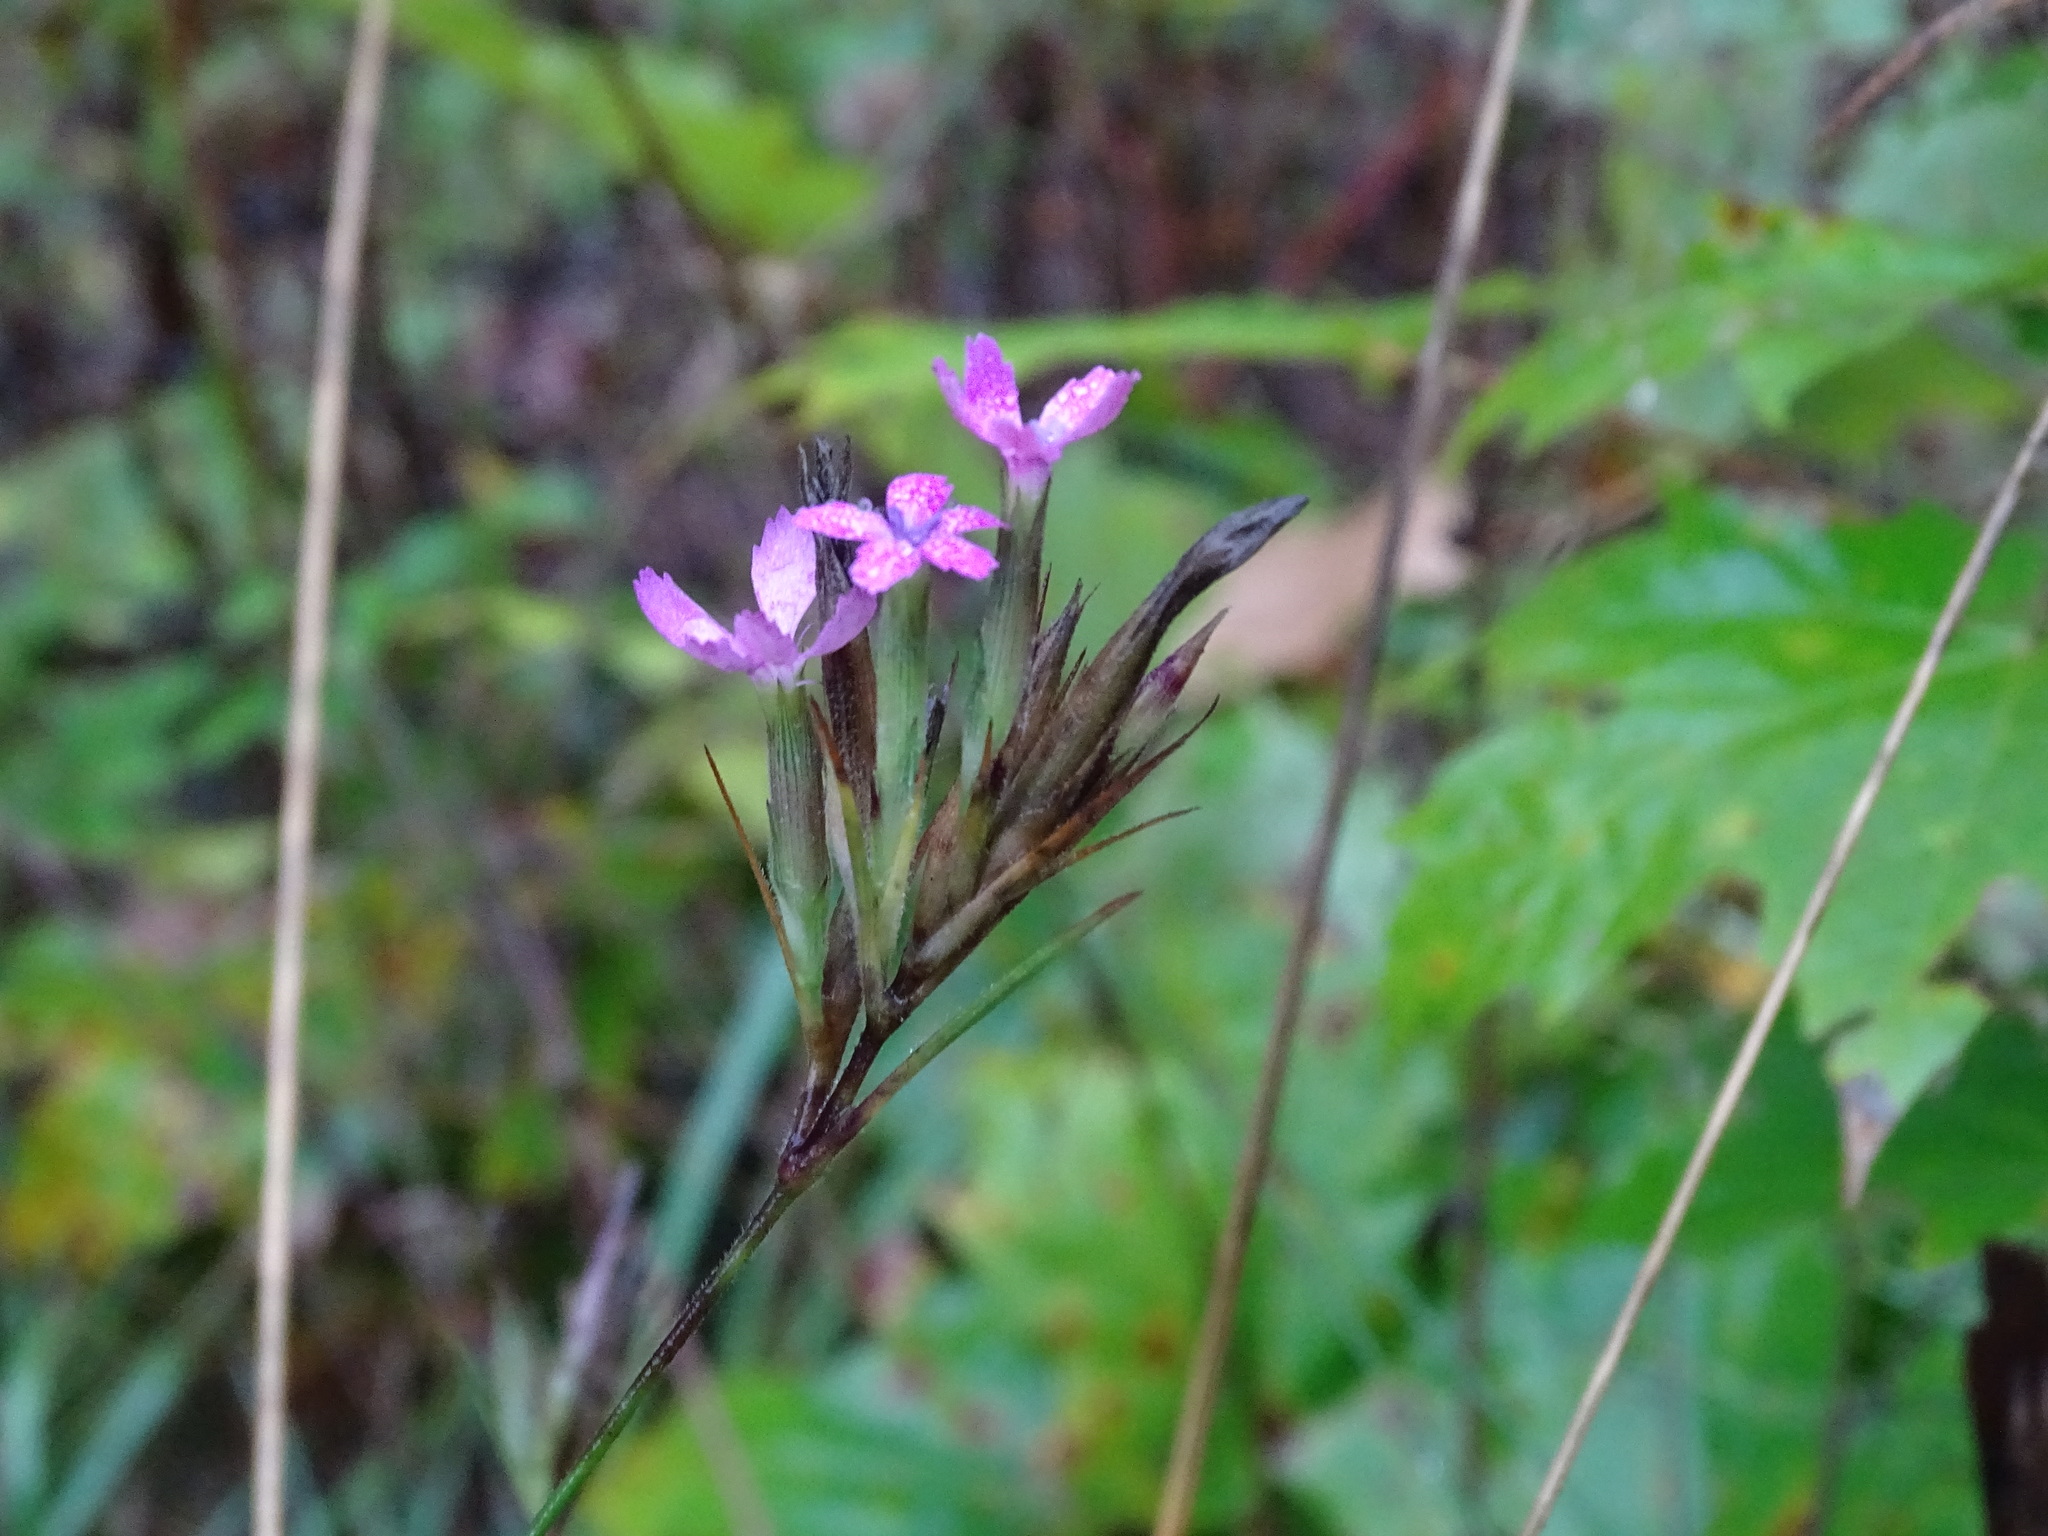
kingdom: Plantae
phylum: Tracheophyta
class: Magnoliopsida
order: Caryophyllales
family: Caryophyllaceae
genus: Dianthus
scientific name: Dianthus armeria
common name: Deptford pink
